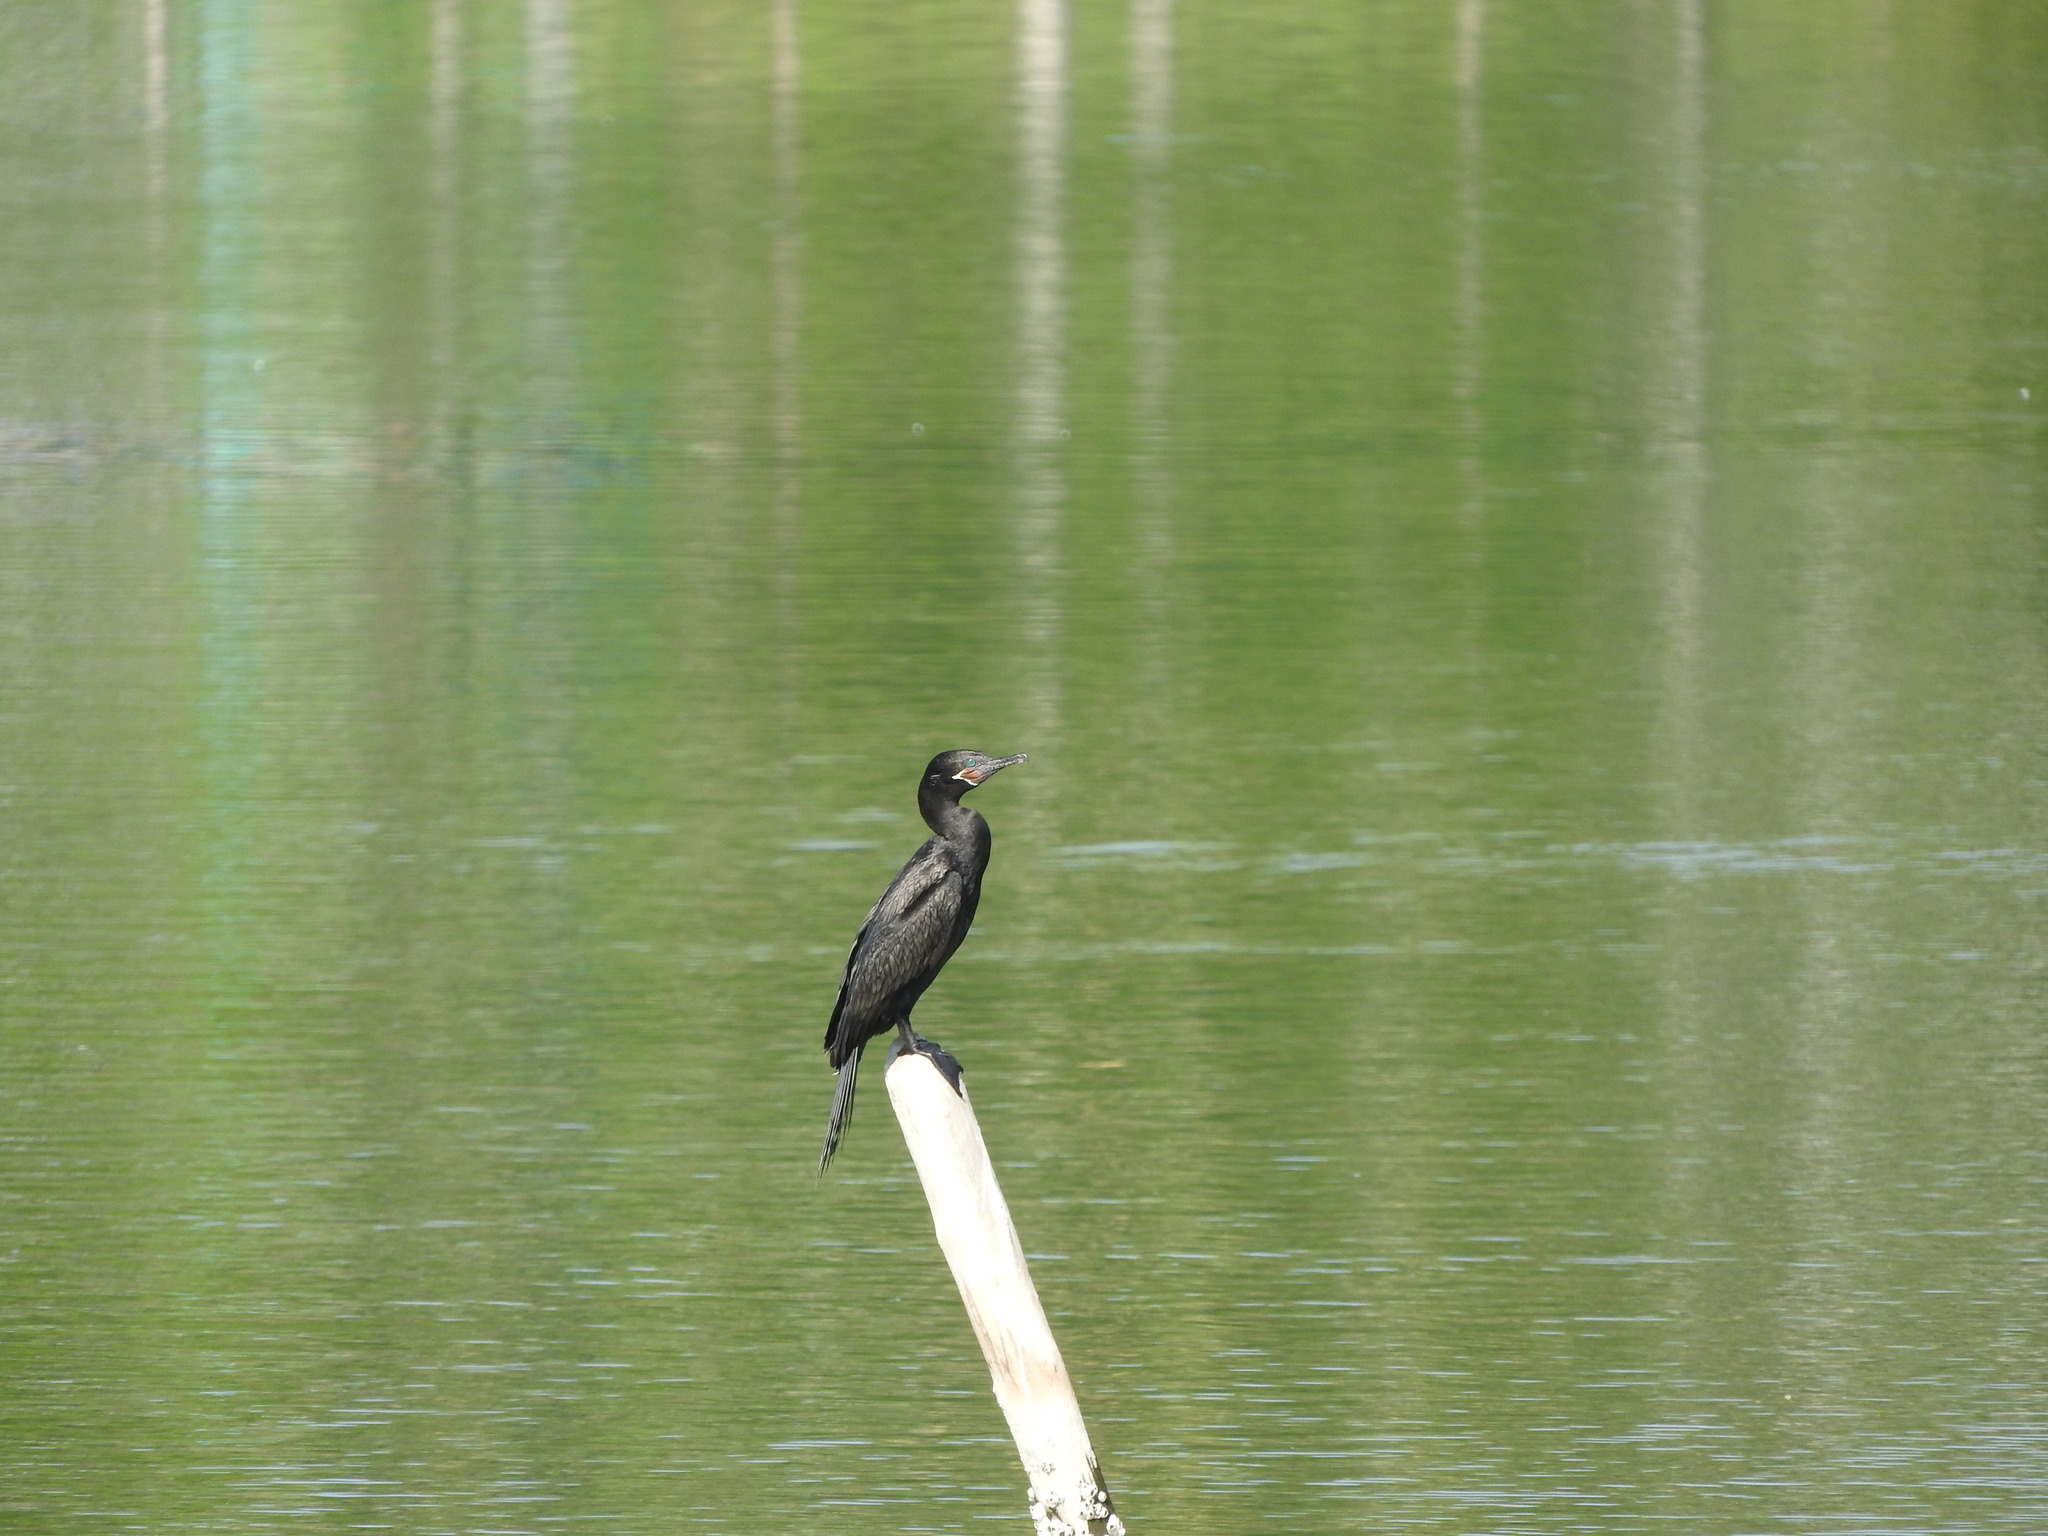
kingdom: Animalia
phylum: Chordata
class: Aves
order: Suliformes
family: Phalacrocoracidae
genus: Phalacrocorax
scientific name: Phalacrocorax brasilianus
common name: Neotropic cormorant
